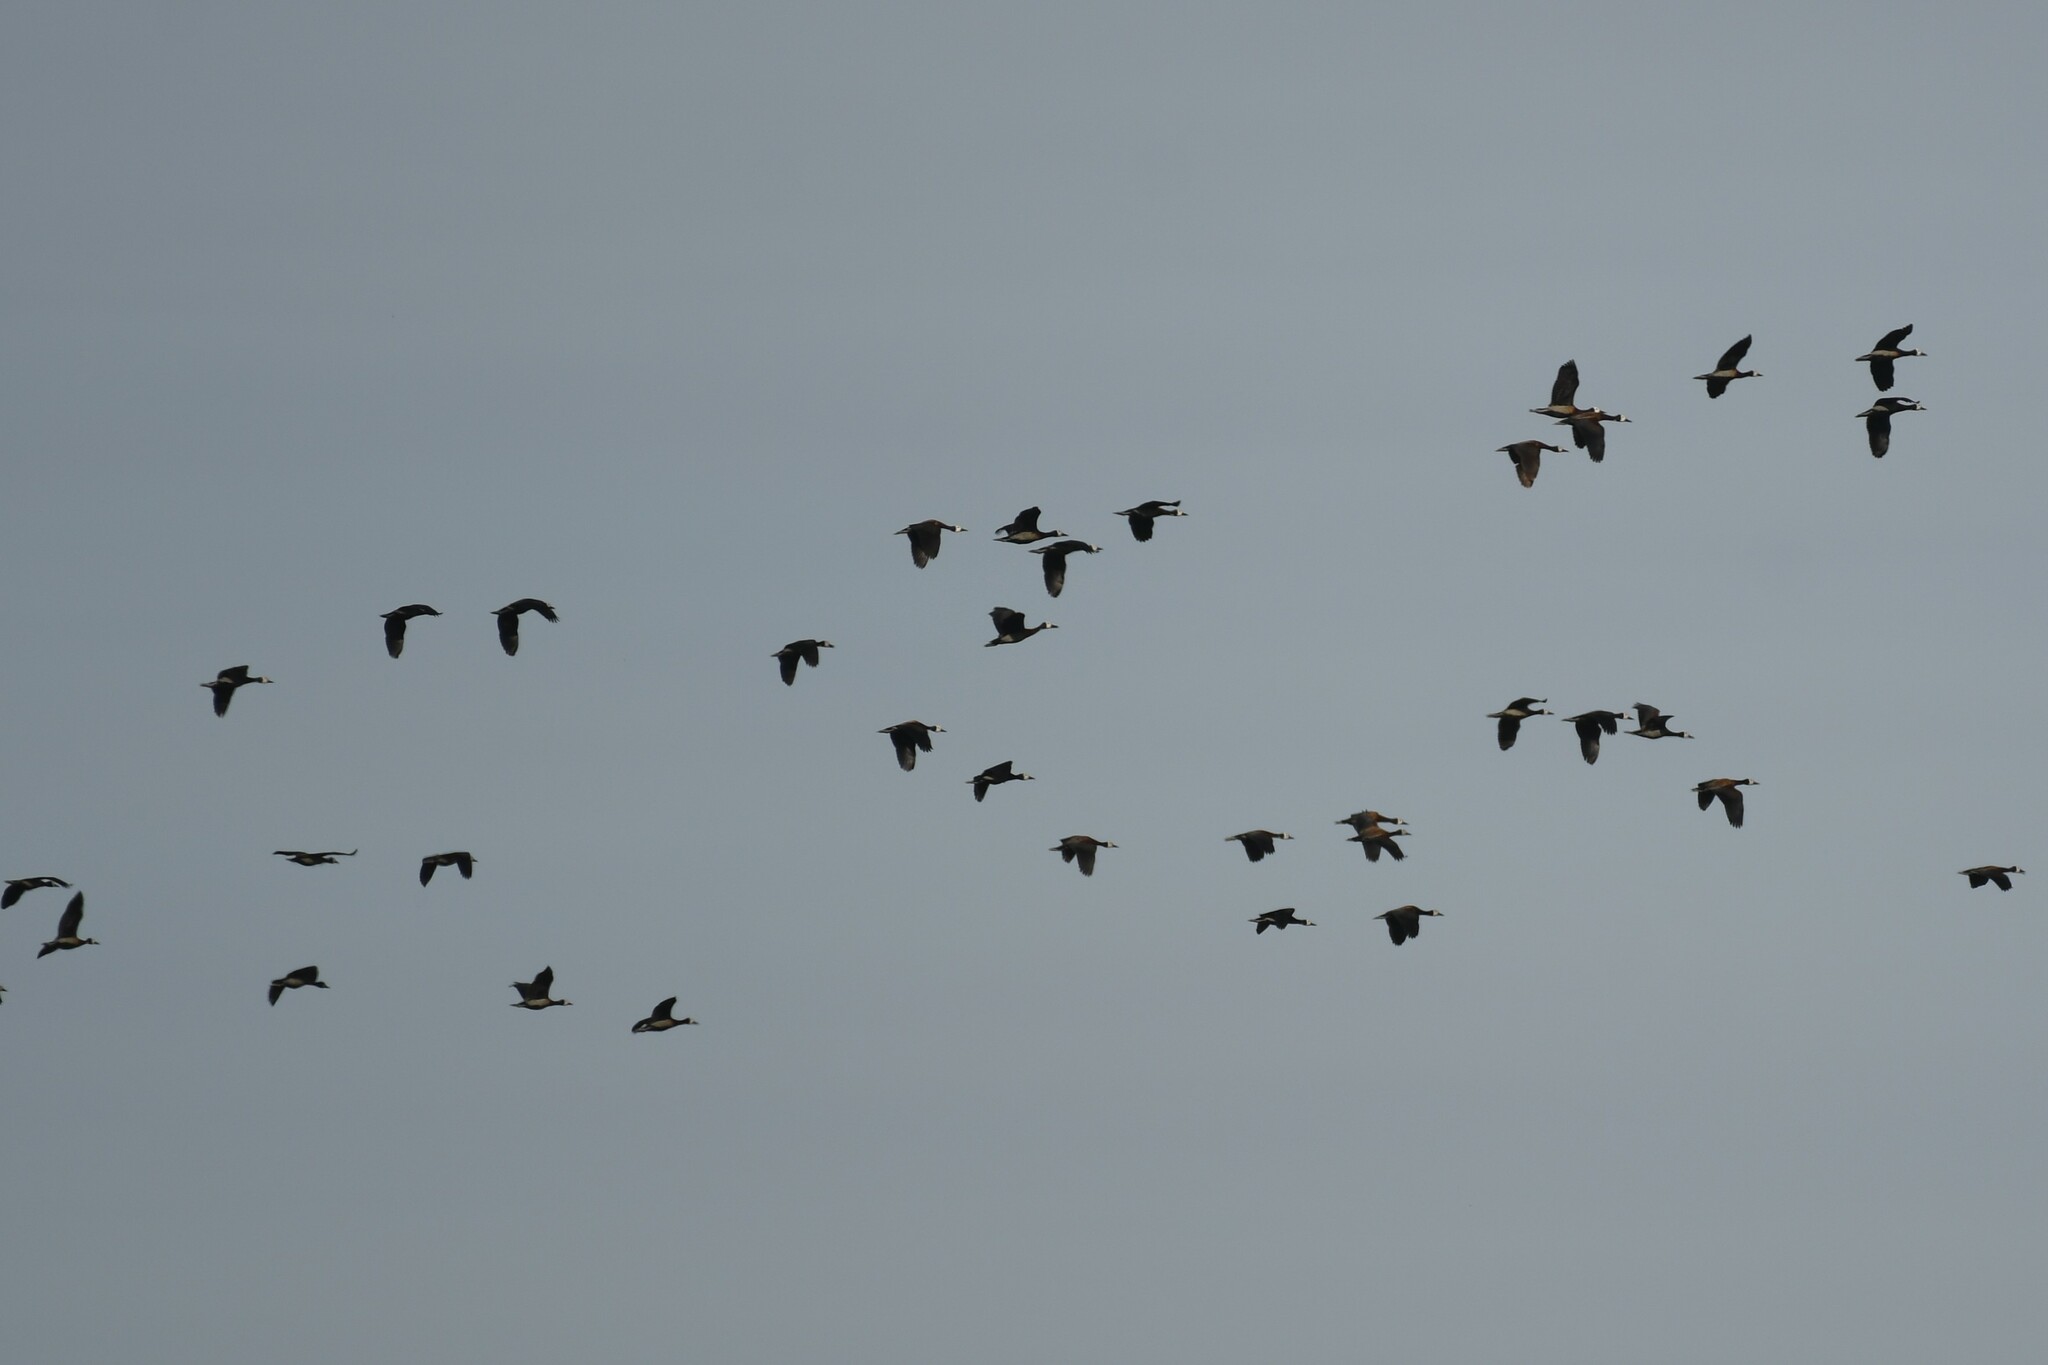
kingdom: Animalia
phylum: Chordata
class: Aves
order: Anseriformes
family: Anatidae
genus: Dendrocygna
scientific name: Dendrocygna viduata
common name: White-faced whistling duck
